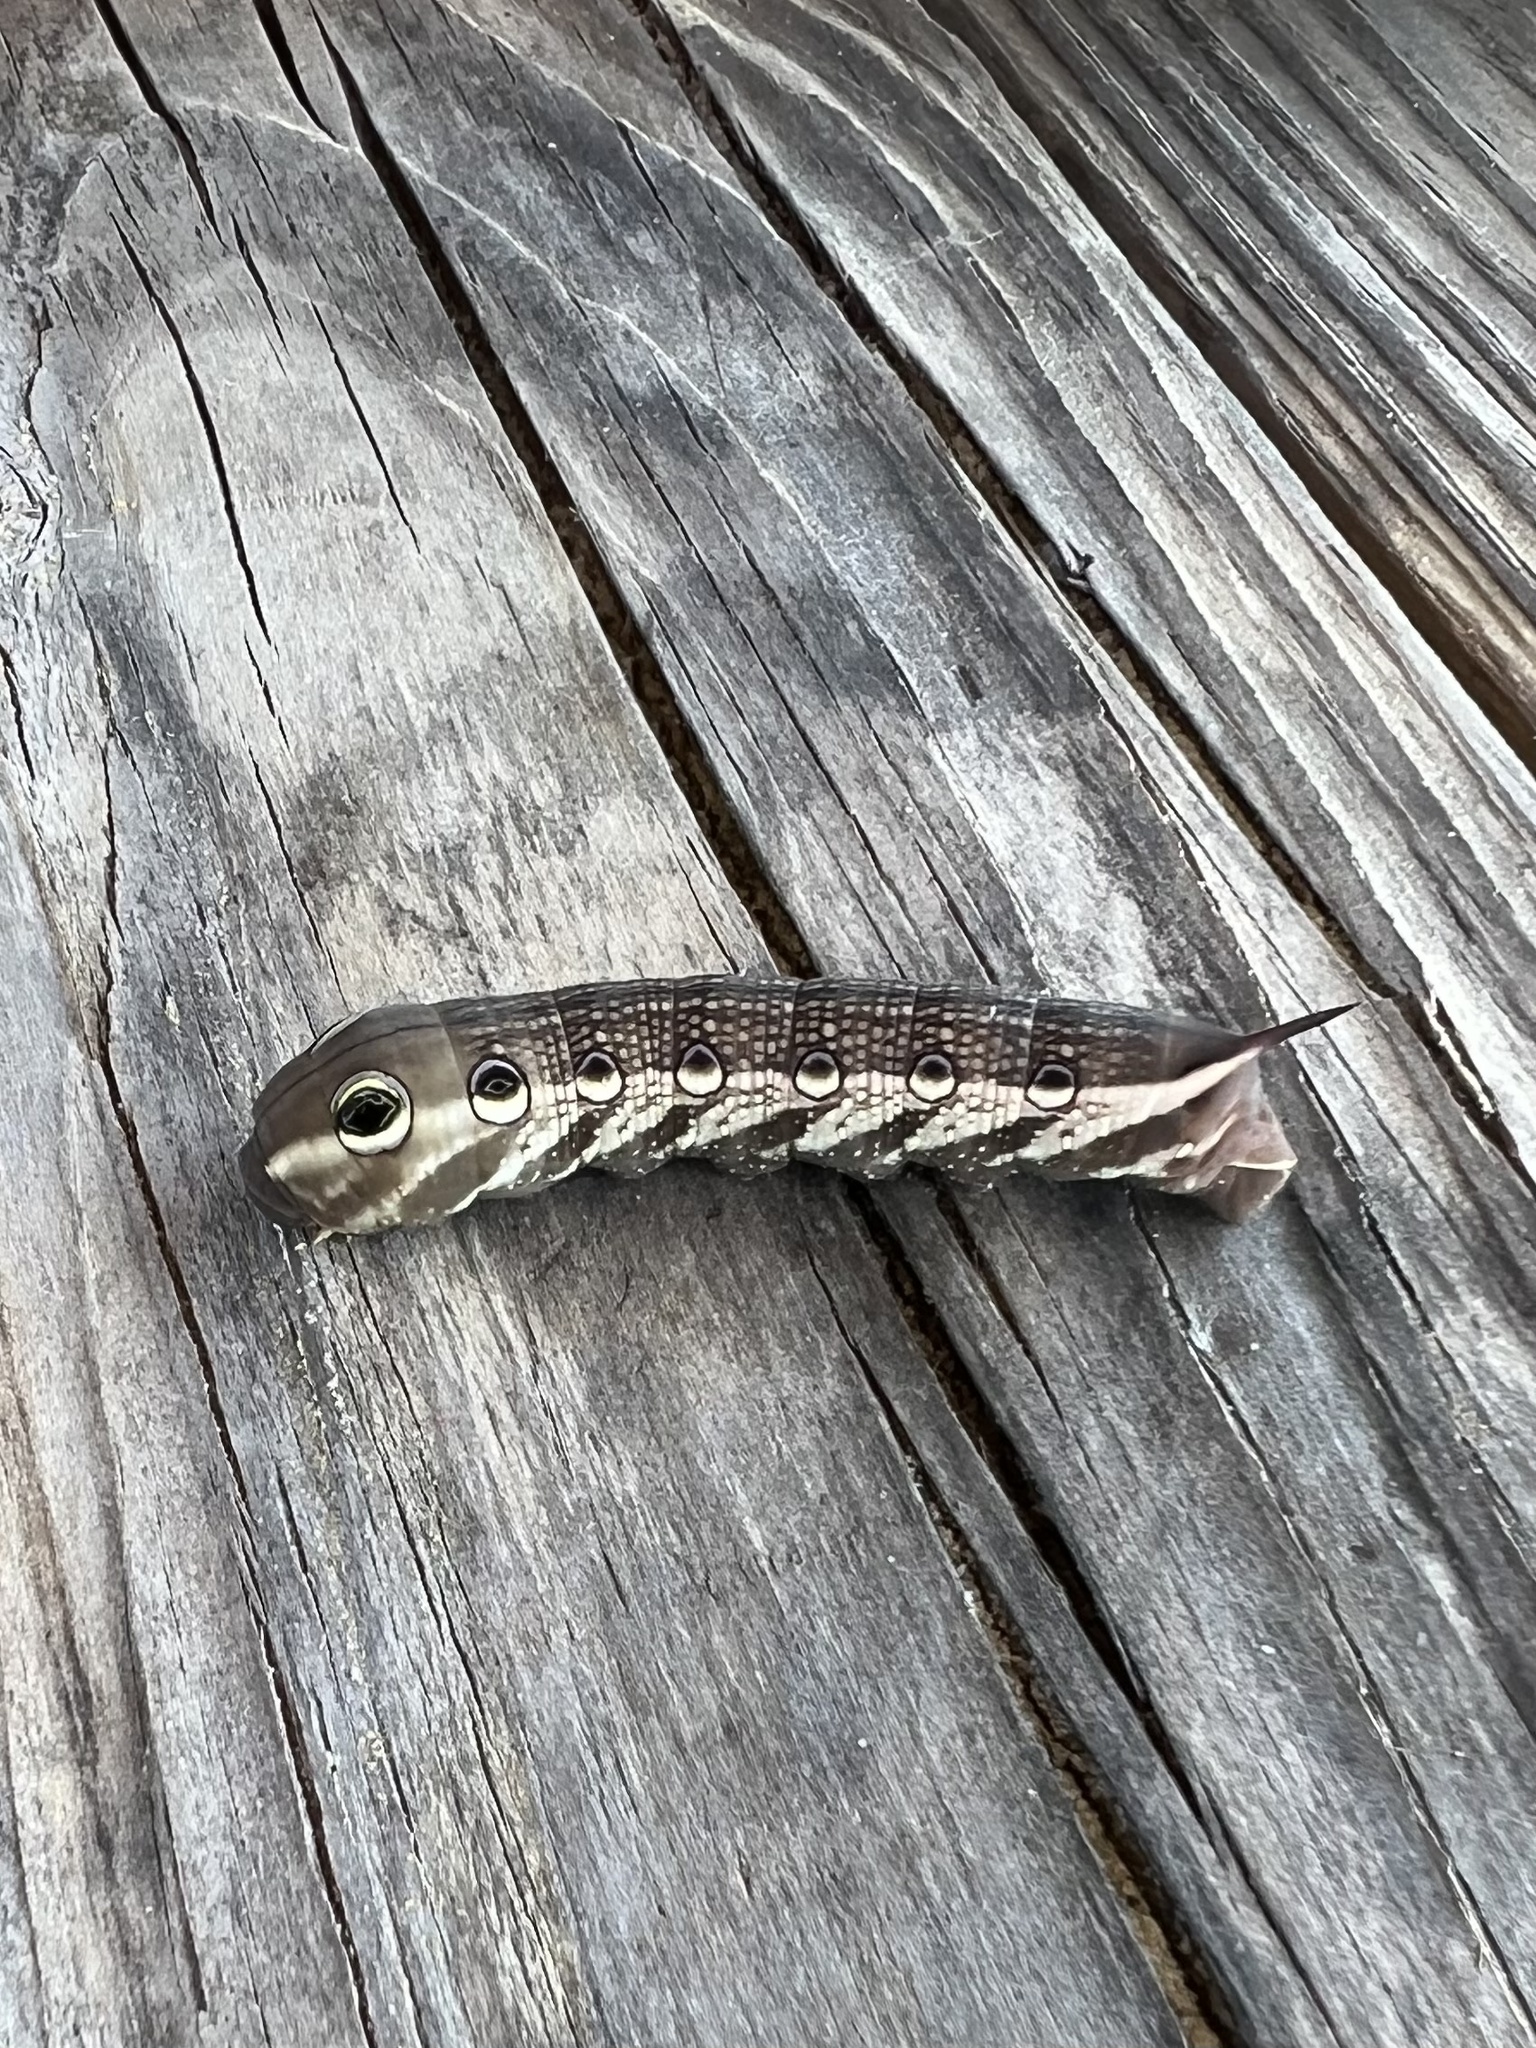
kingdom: Animalia
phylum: Arthropoda
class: Insecta
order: Lepidoptera
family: Sphingidae
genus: Xylophanes
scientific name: Xylophanes tersa
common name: Tersa sphinx
